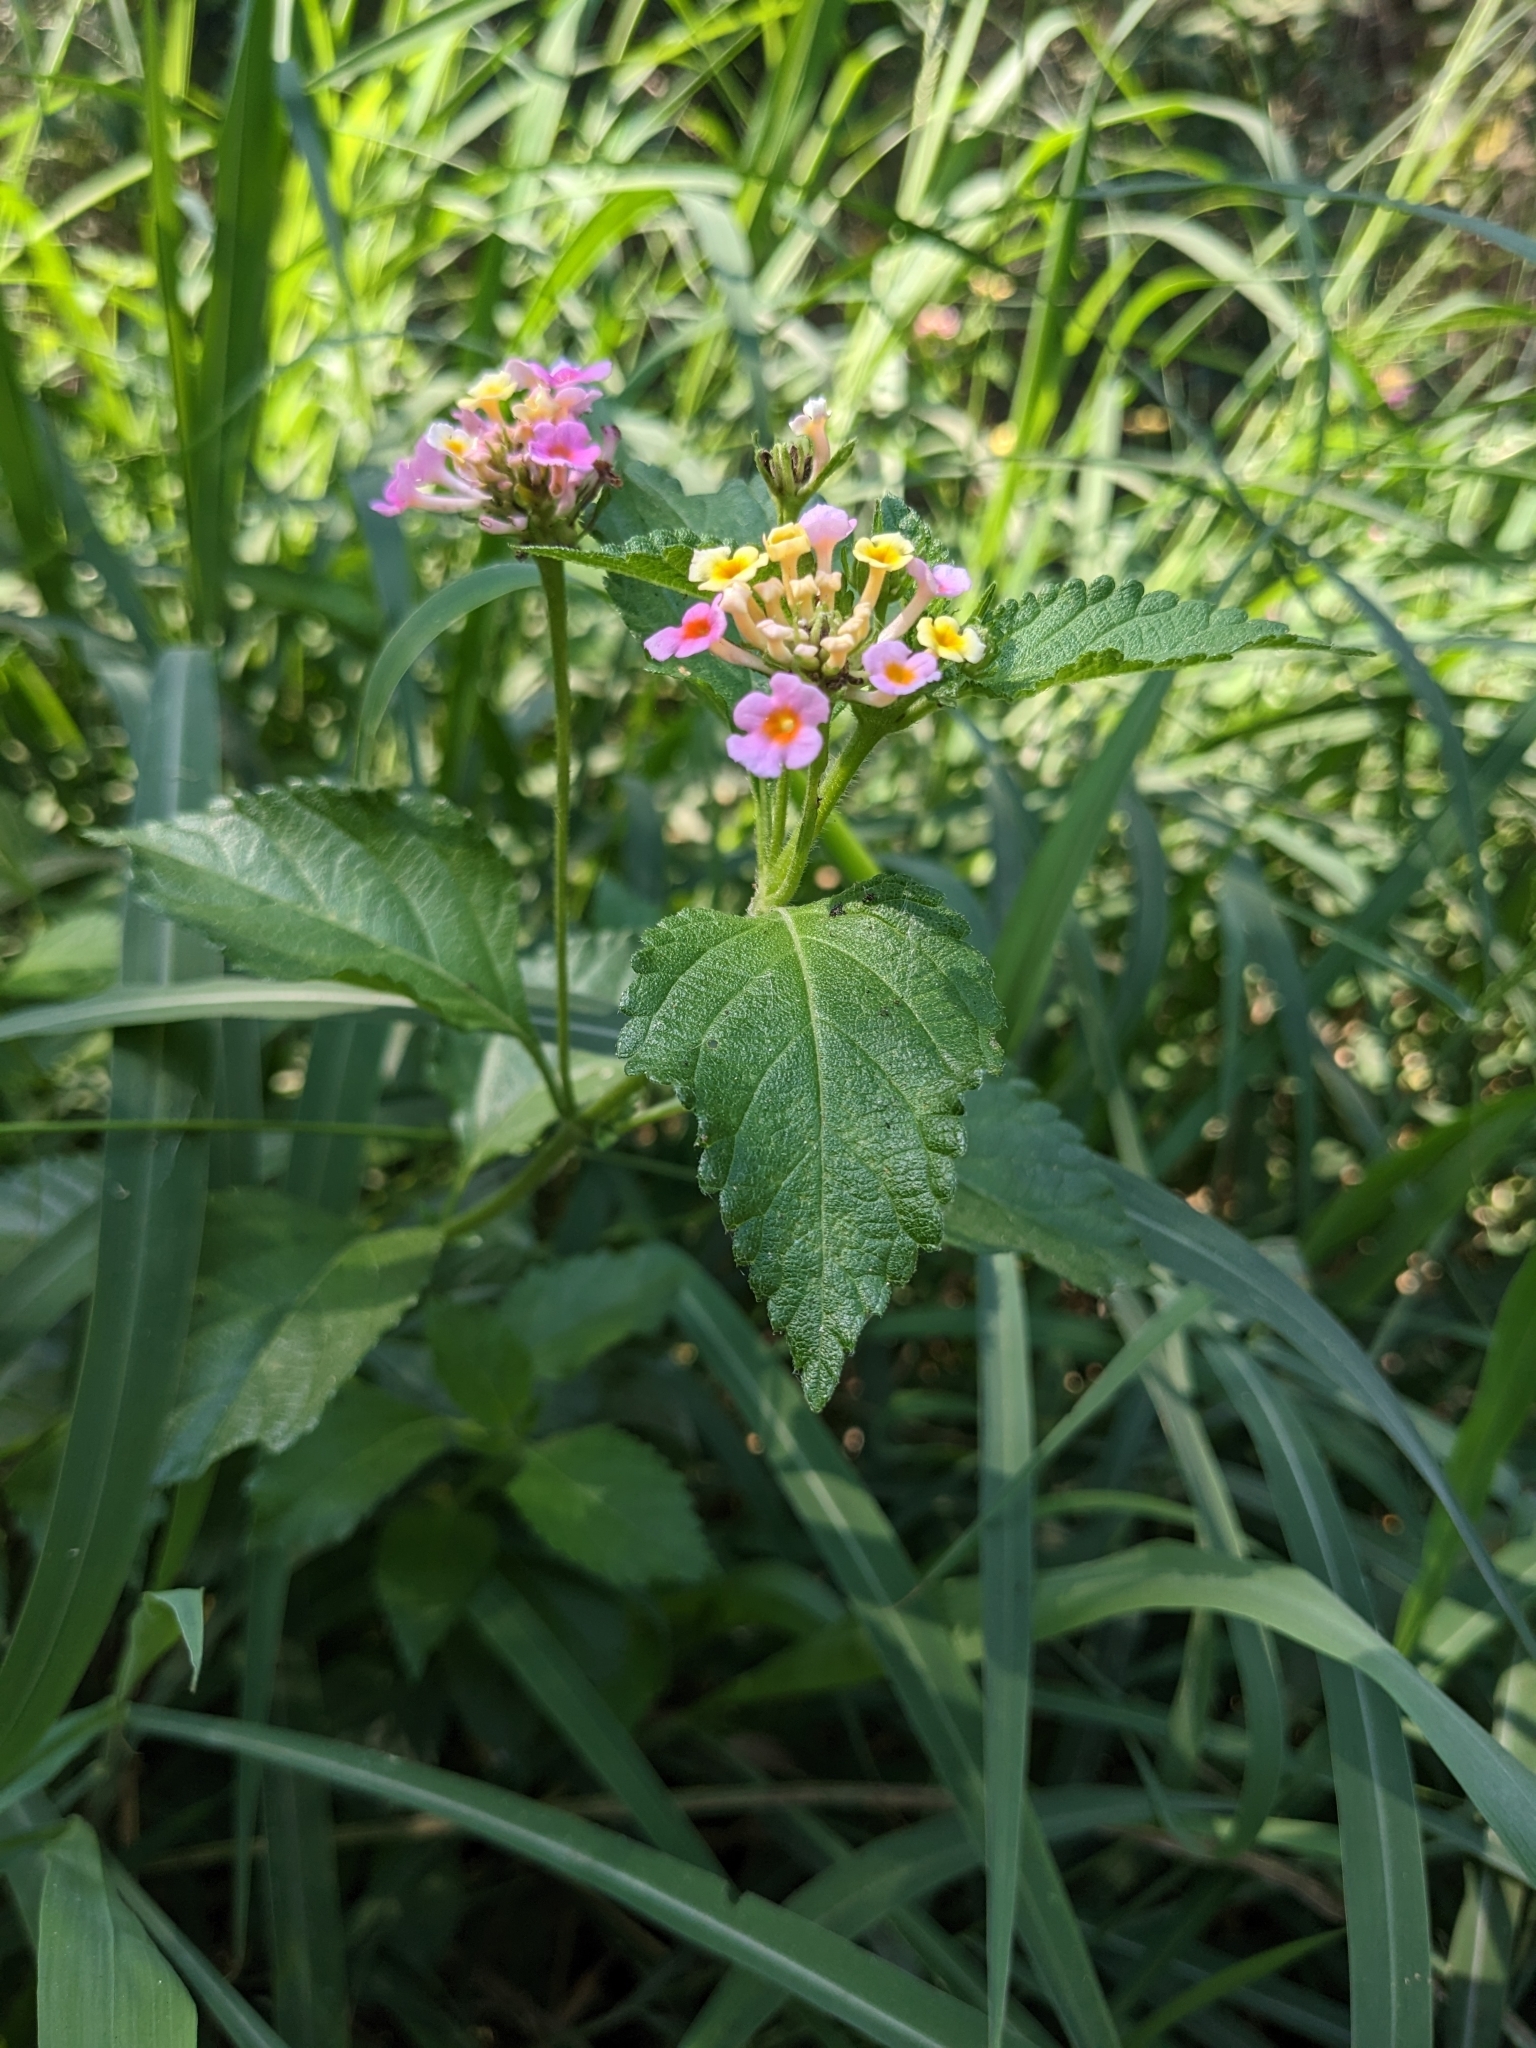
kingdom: Plantae
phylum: Tracheophyta
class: Magnoliopsida
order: Lamiales
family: Verbenaceae
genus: Lantana
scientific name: Lantana strigocamara
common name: Lantana
